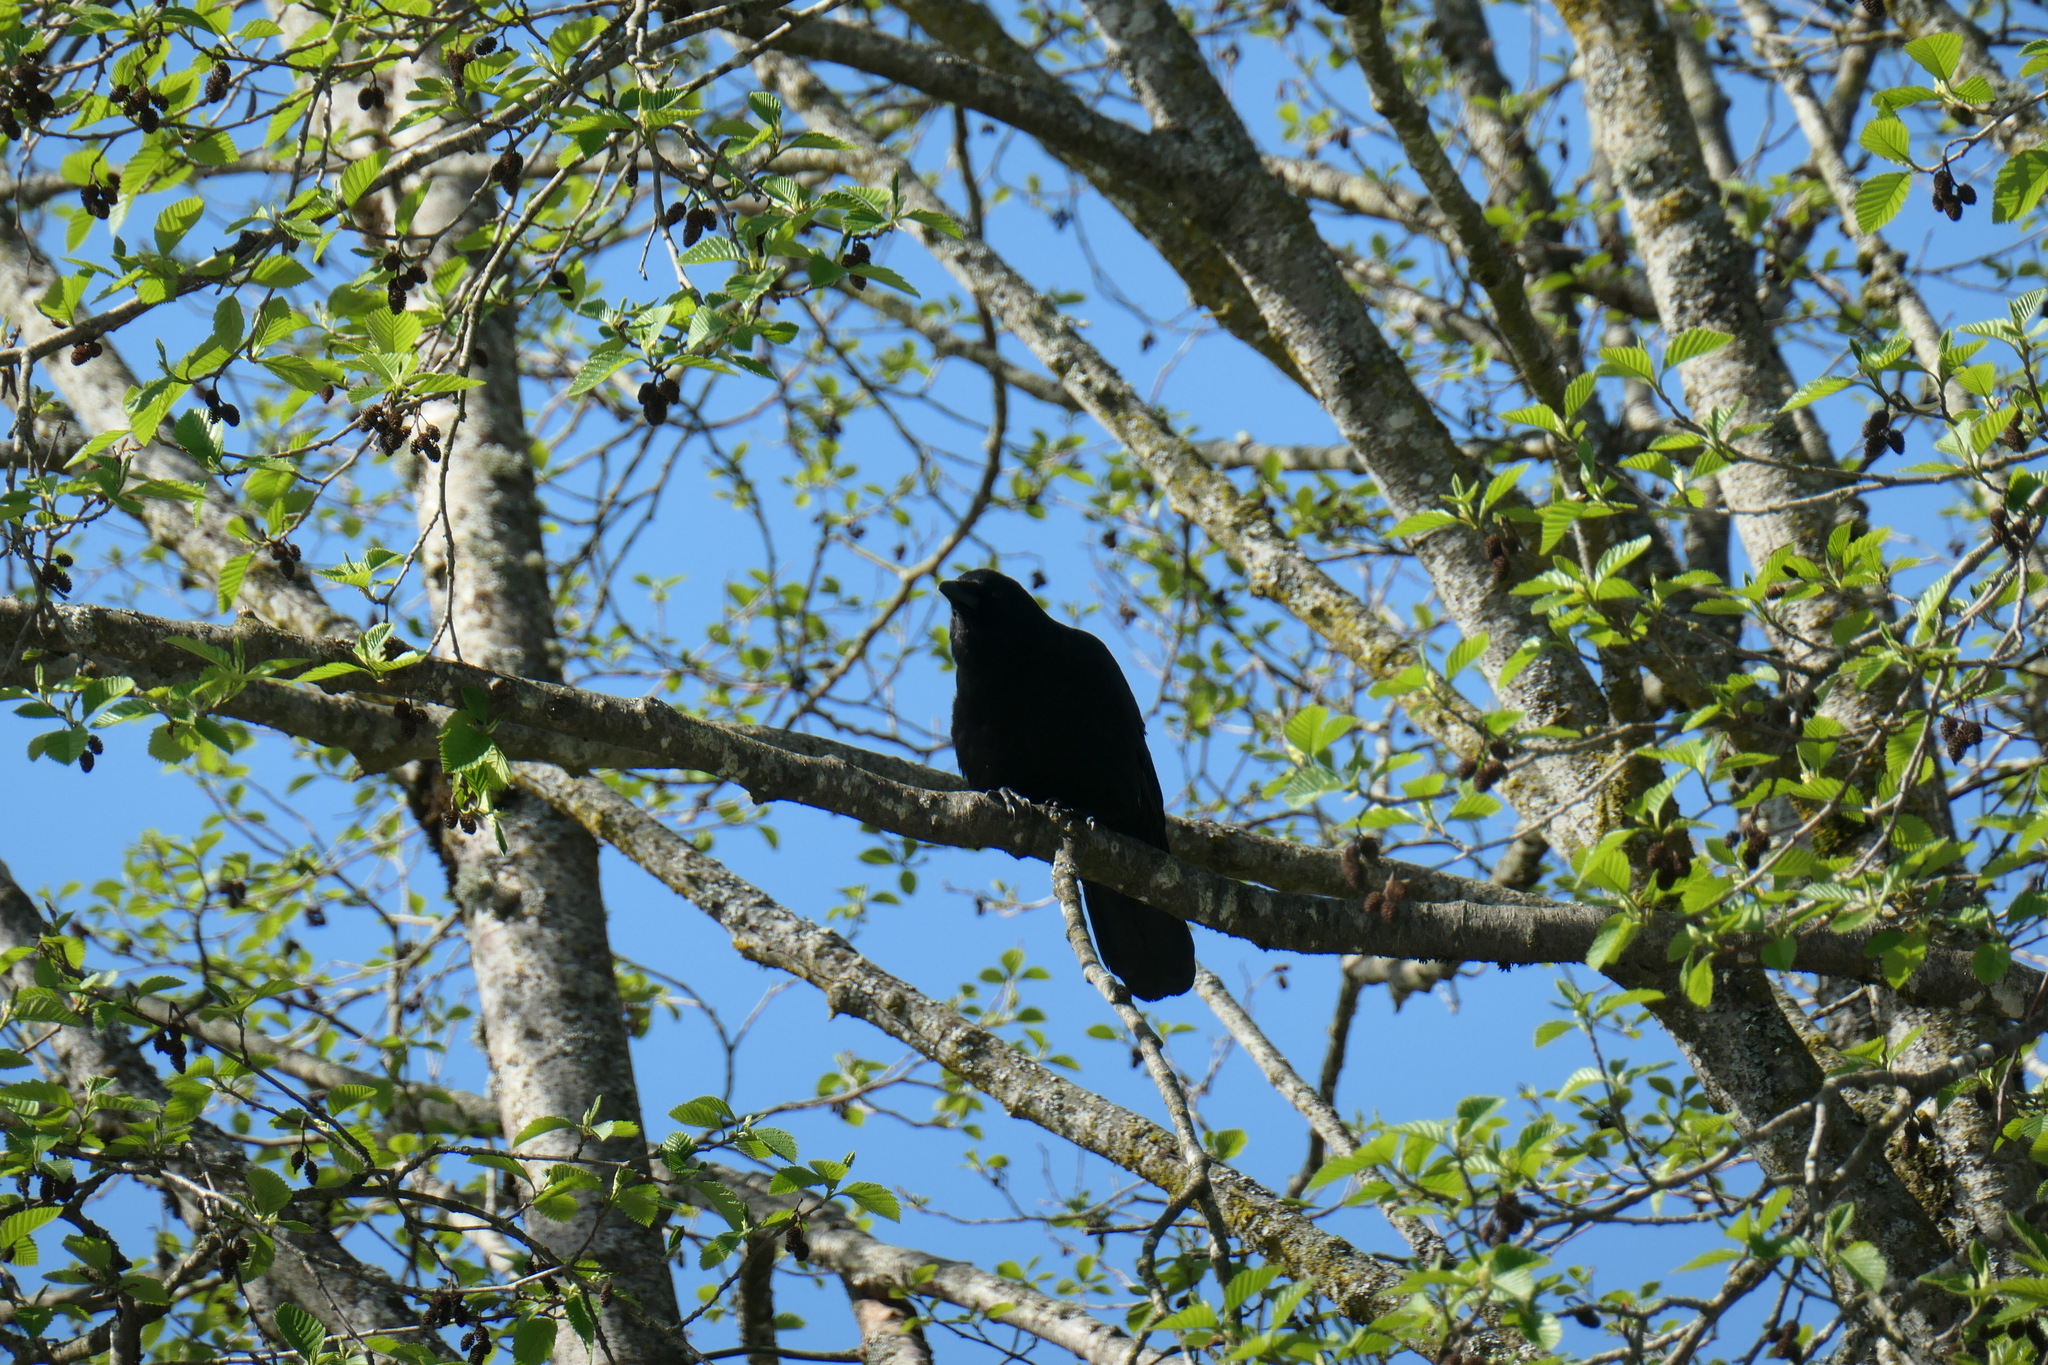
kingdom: Animalia
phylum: Chordata
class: Aves
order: Passeriformes
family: Corvidae
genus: Corvus
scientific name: Corvus brachyrhynchos
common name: American crow
